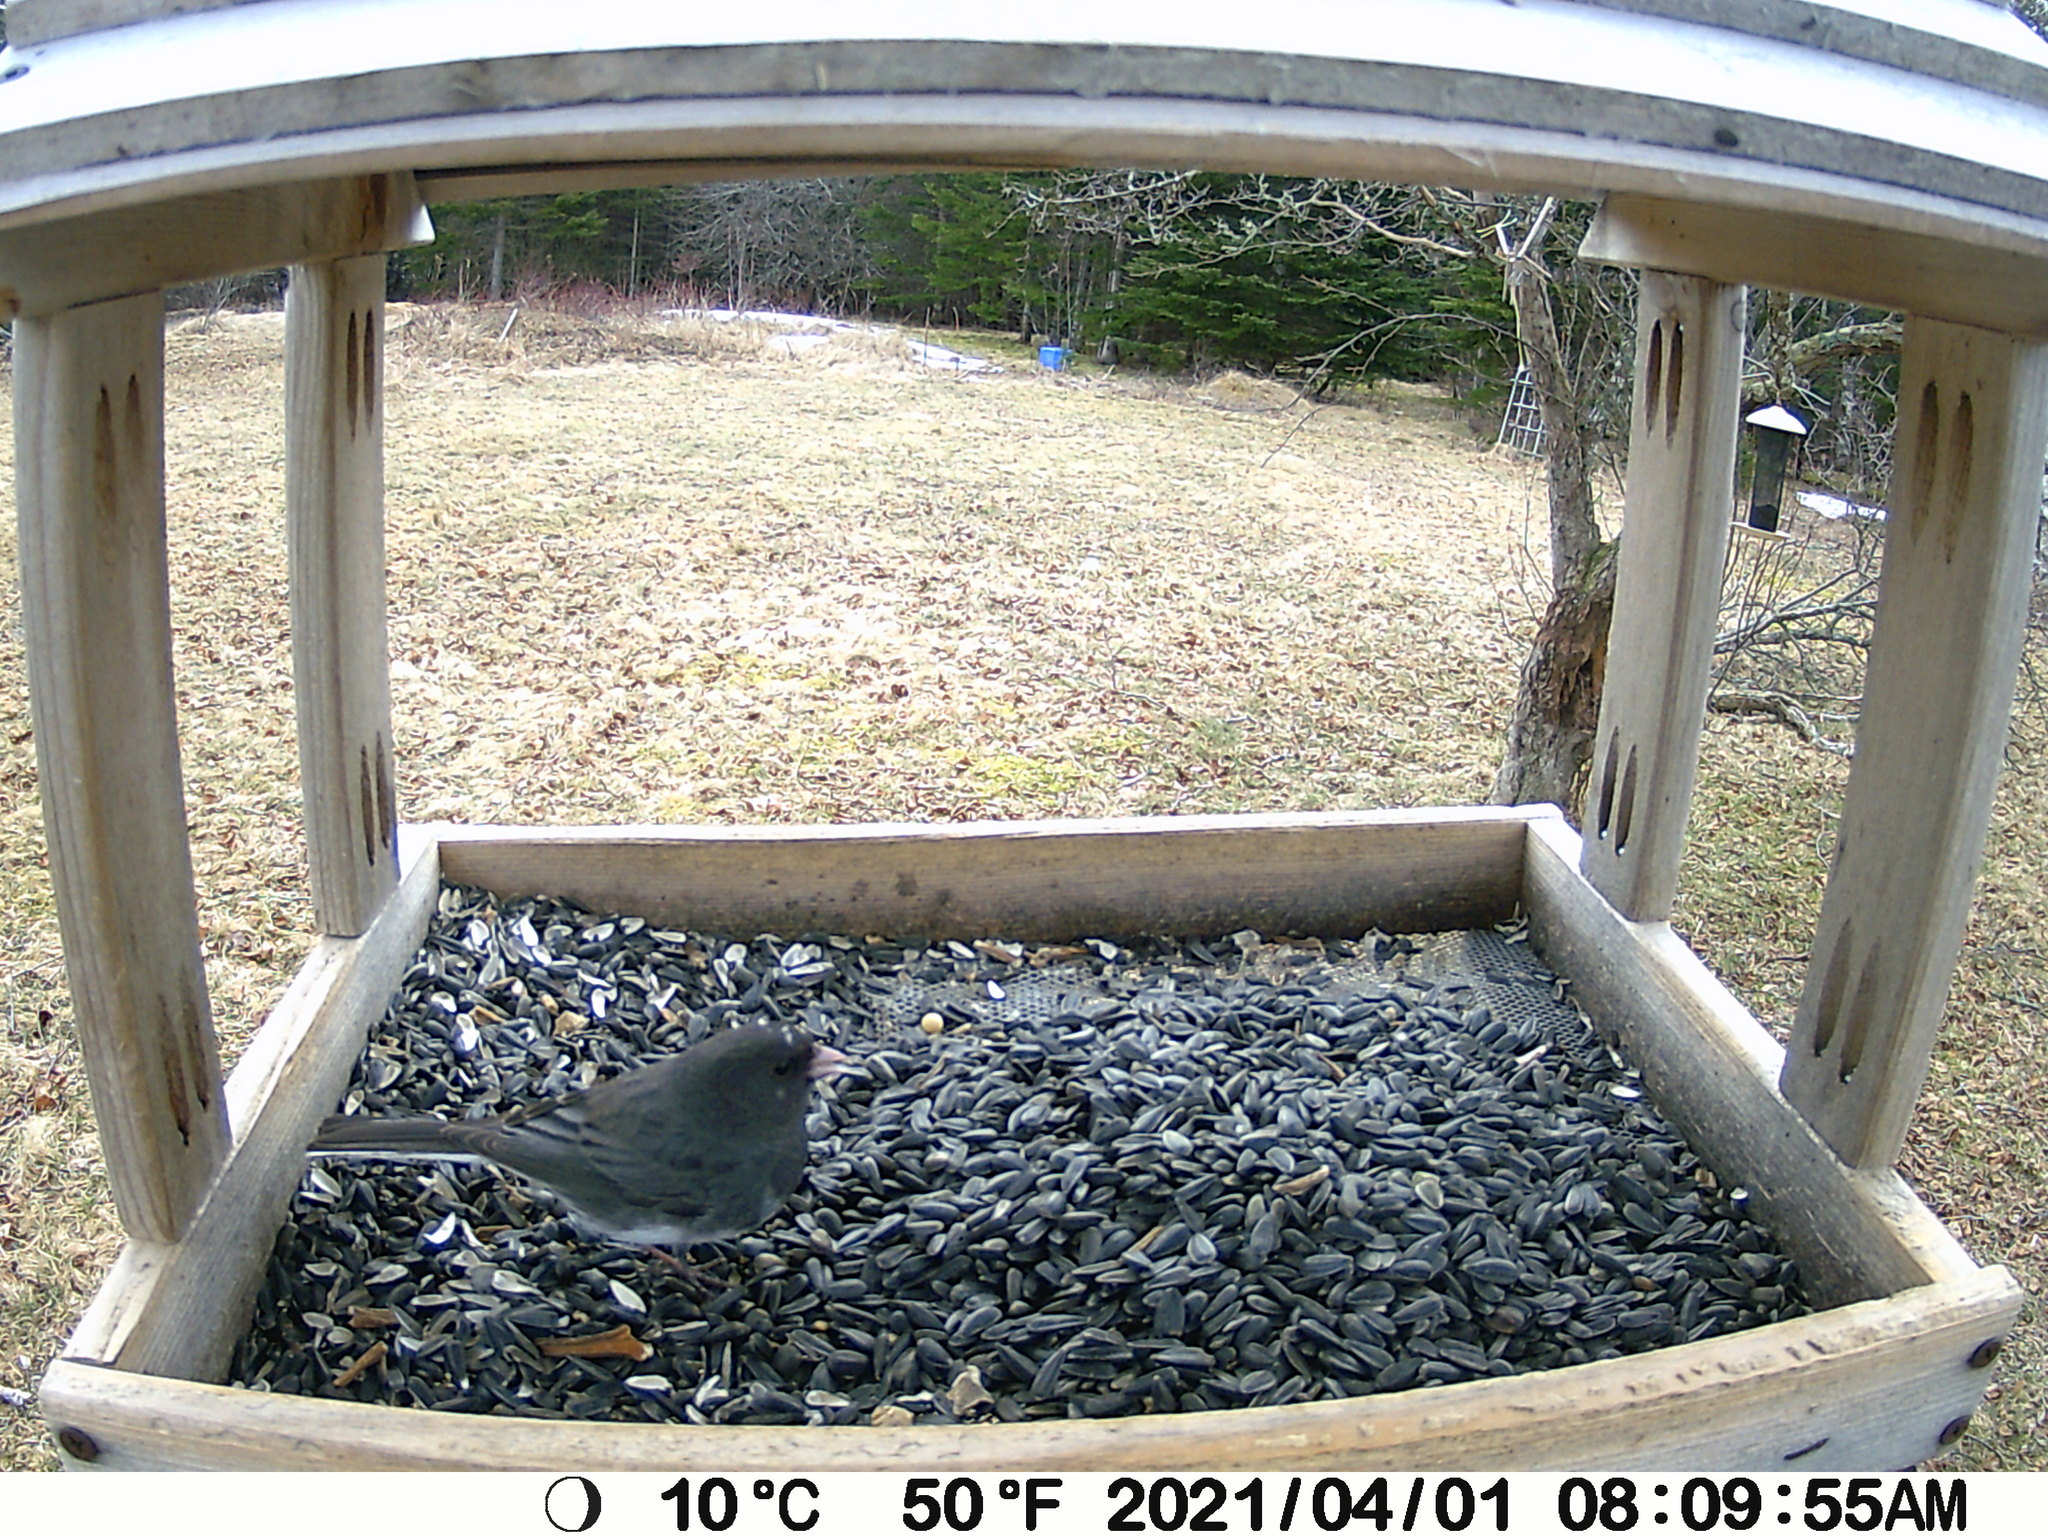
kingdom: Animalia
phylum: Chordata
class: Aves
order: Passeriformes
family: Passerellidae
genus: Junco
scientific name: Junco hyemalis
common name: Dark-eyed junco
